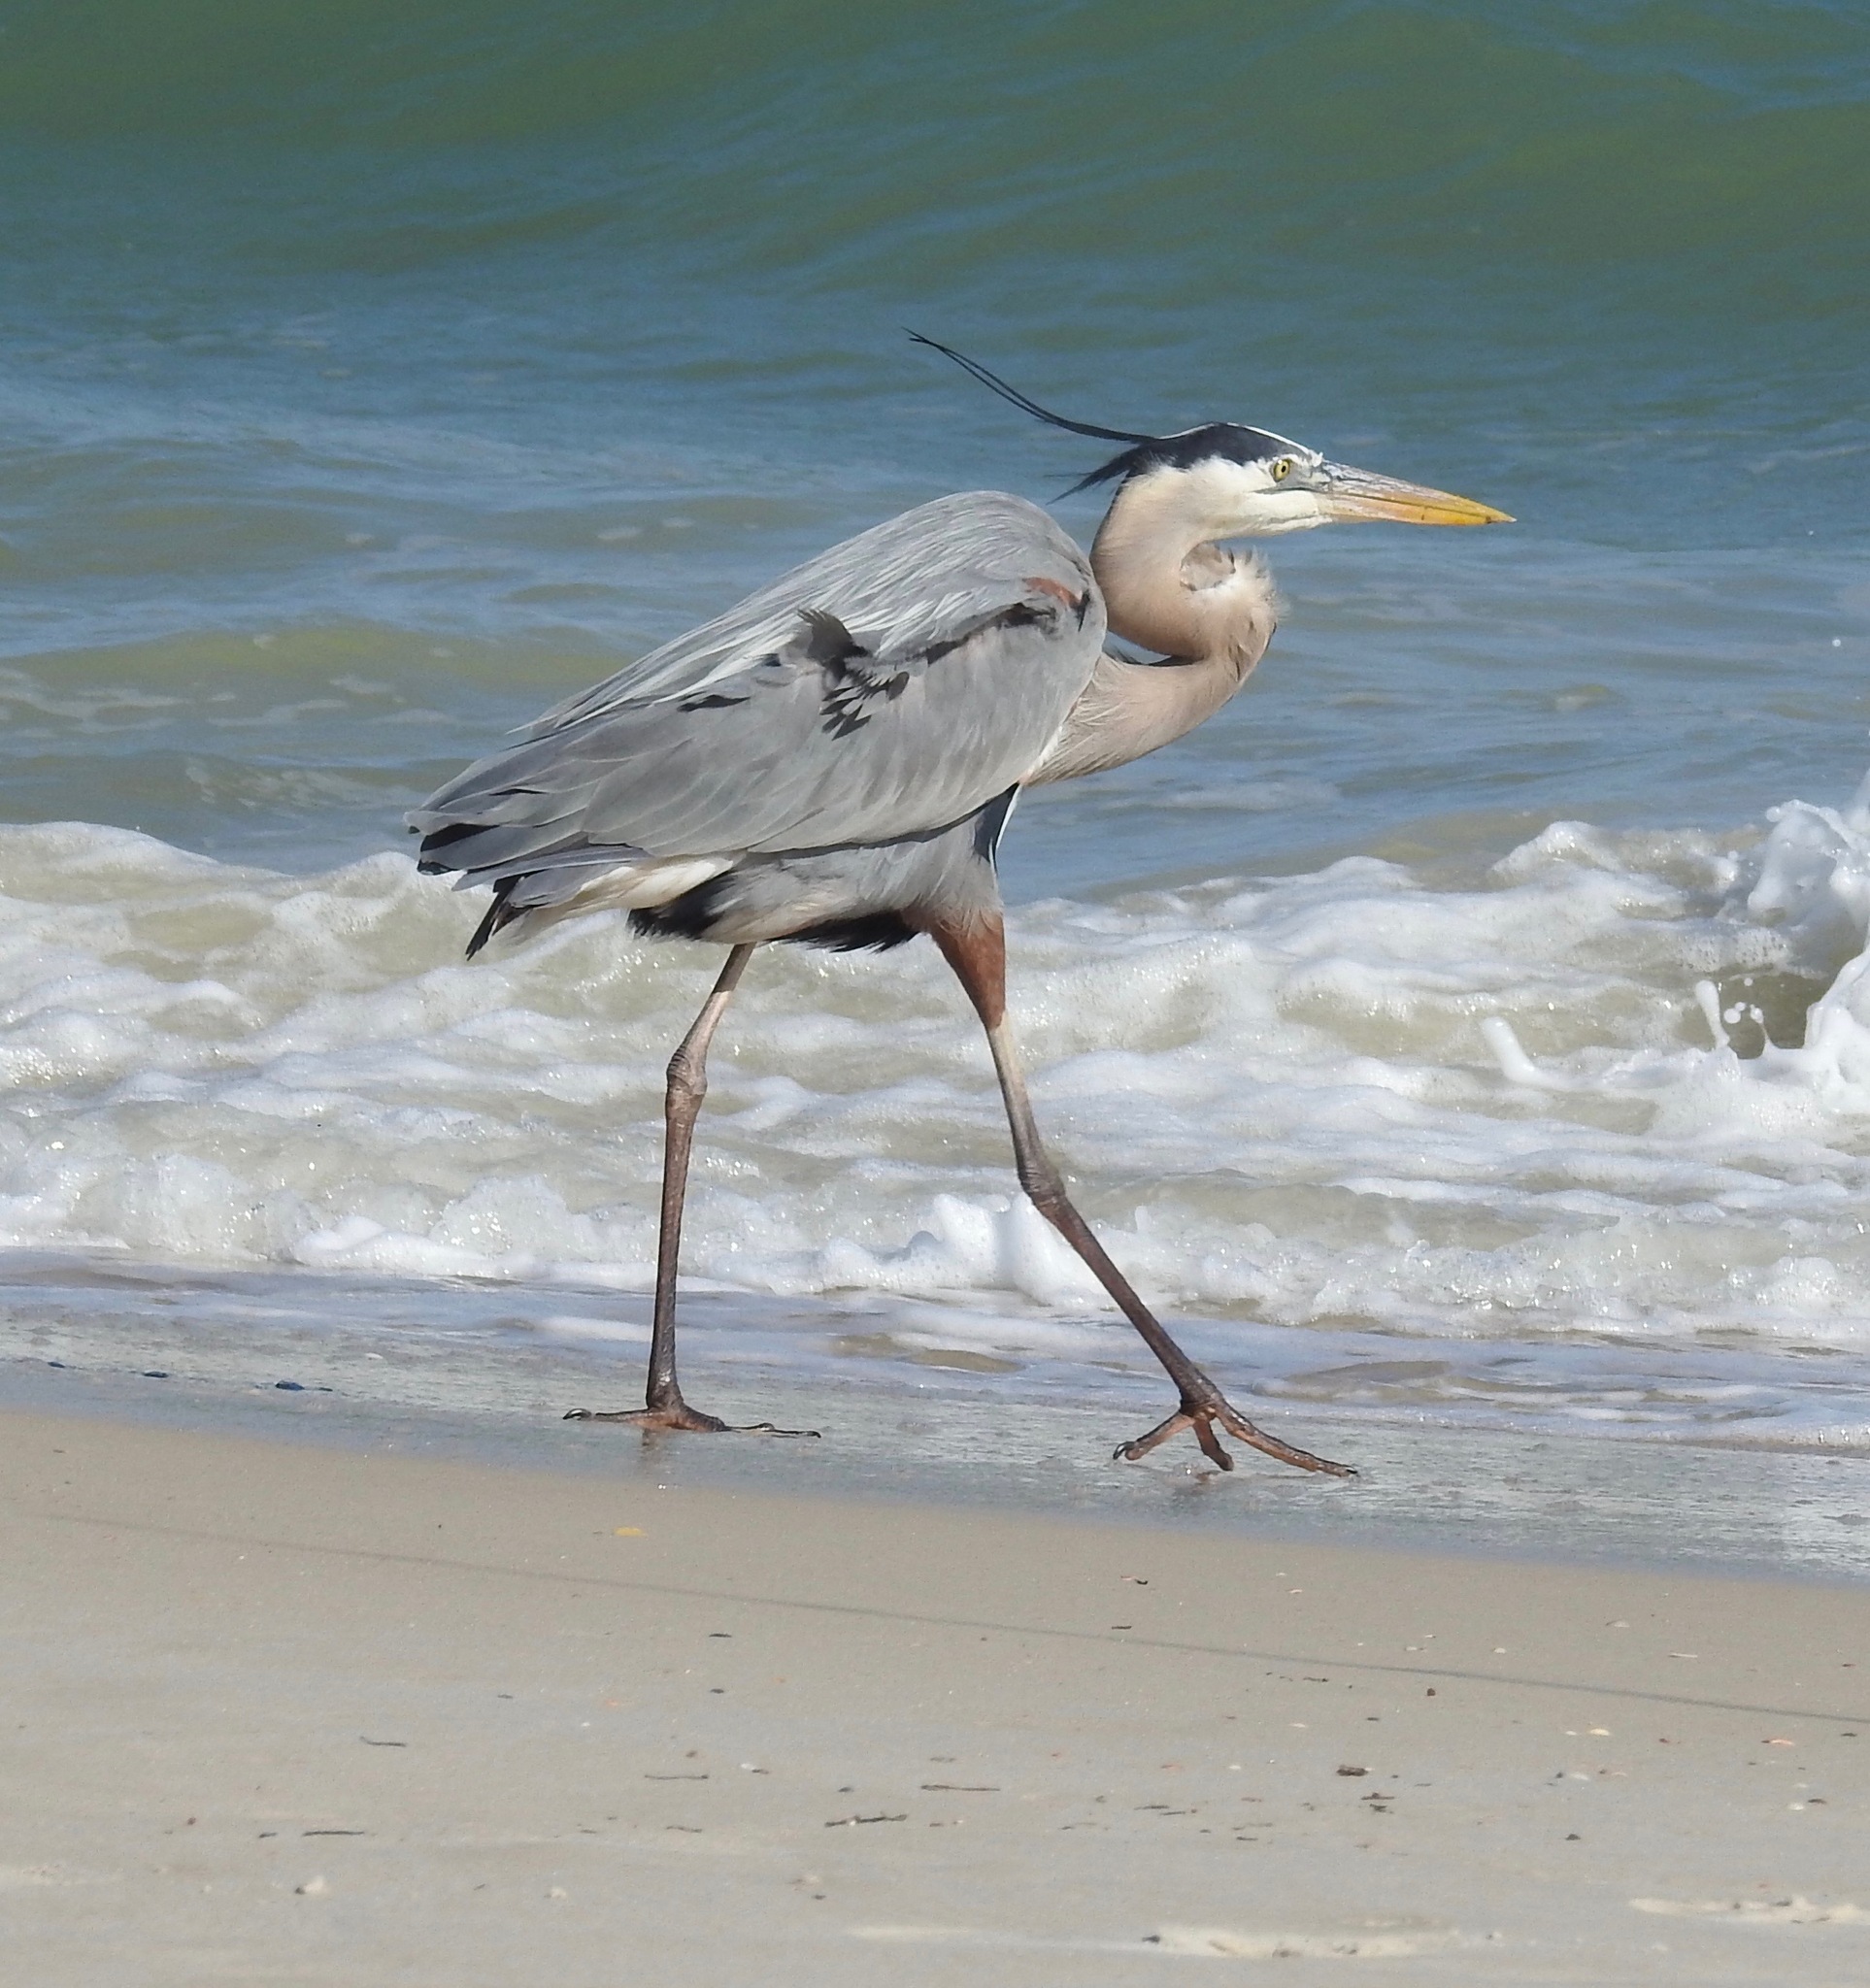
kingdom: Animalia
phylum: Chordata
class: Aves
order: Pelecaniformes
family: Ardeidae
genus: Ardea
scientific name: Ardea herodias
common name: Great blue heron
